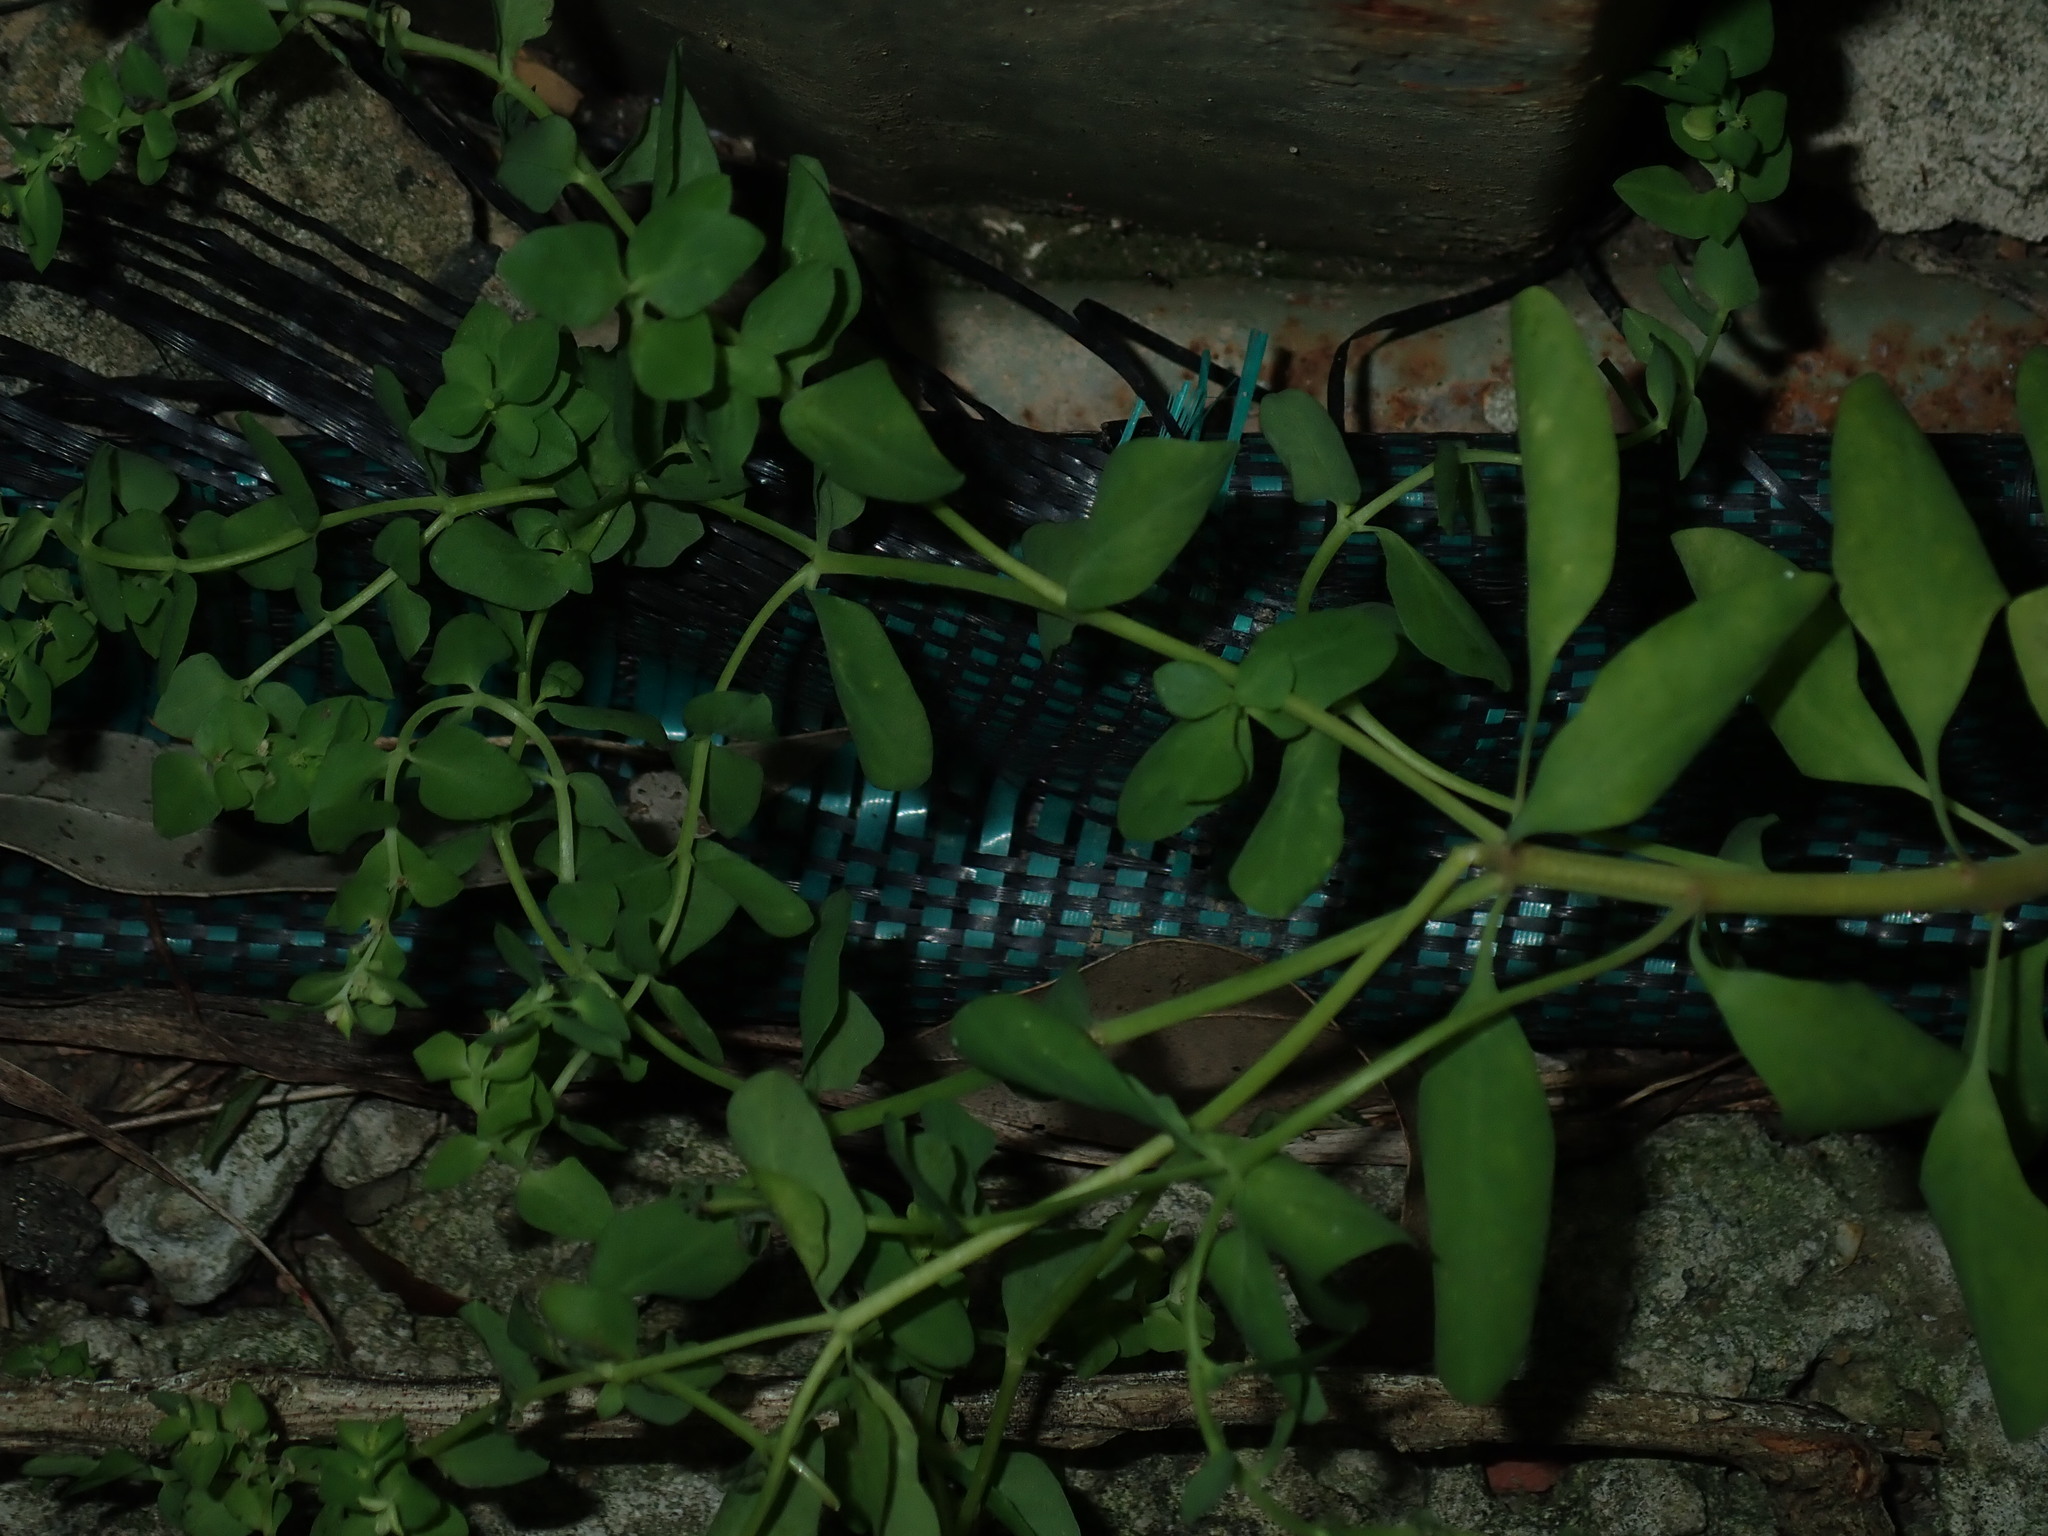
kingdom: Plantae
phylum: Tracheophyta
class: Magnoliopsida
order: Malpighiales
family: Euphorbiaceae
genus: Euphorbia
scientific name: Euphorbia peplus
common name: Petty spurge
